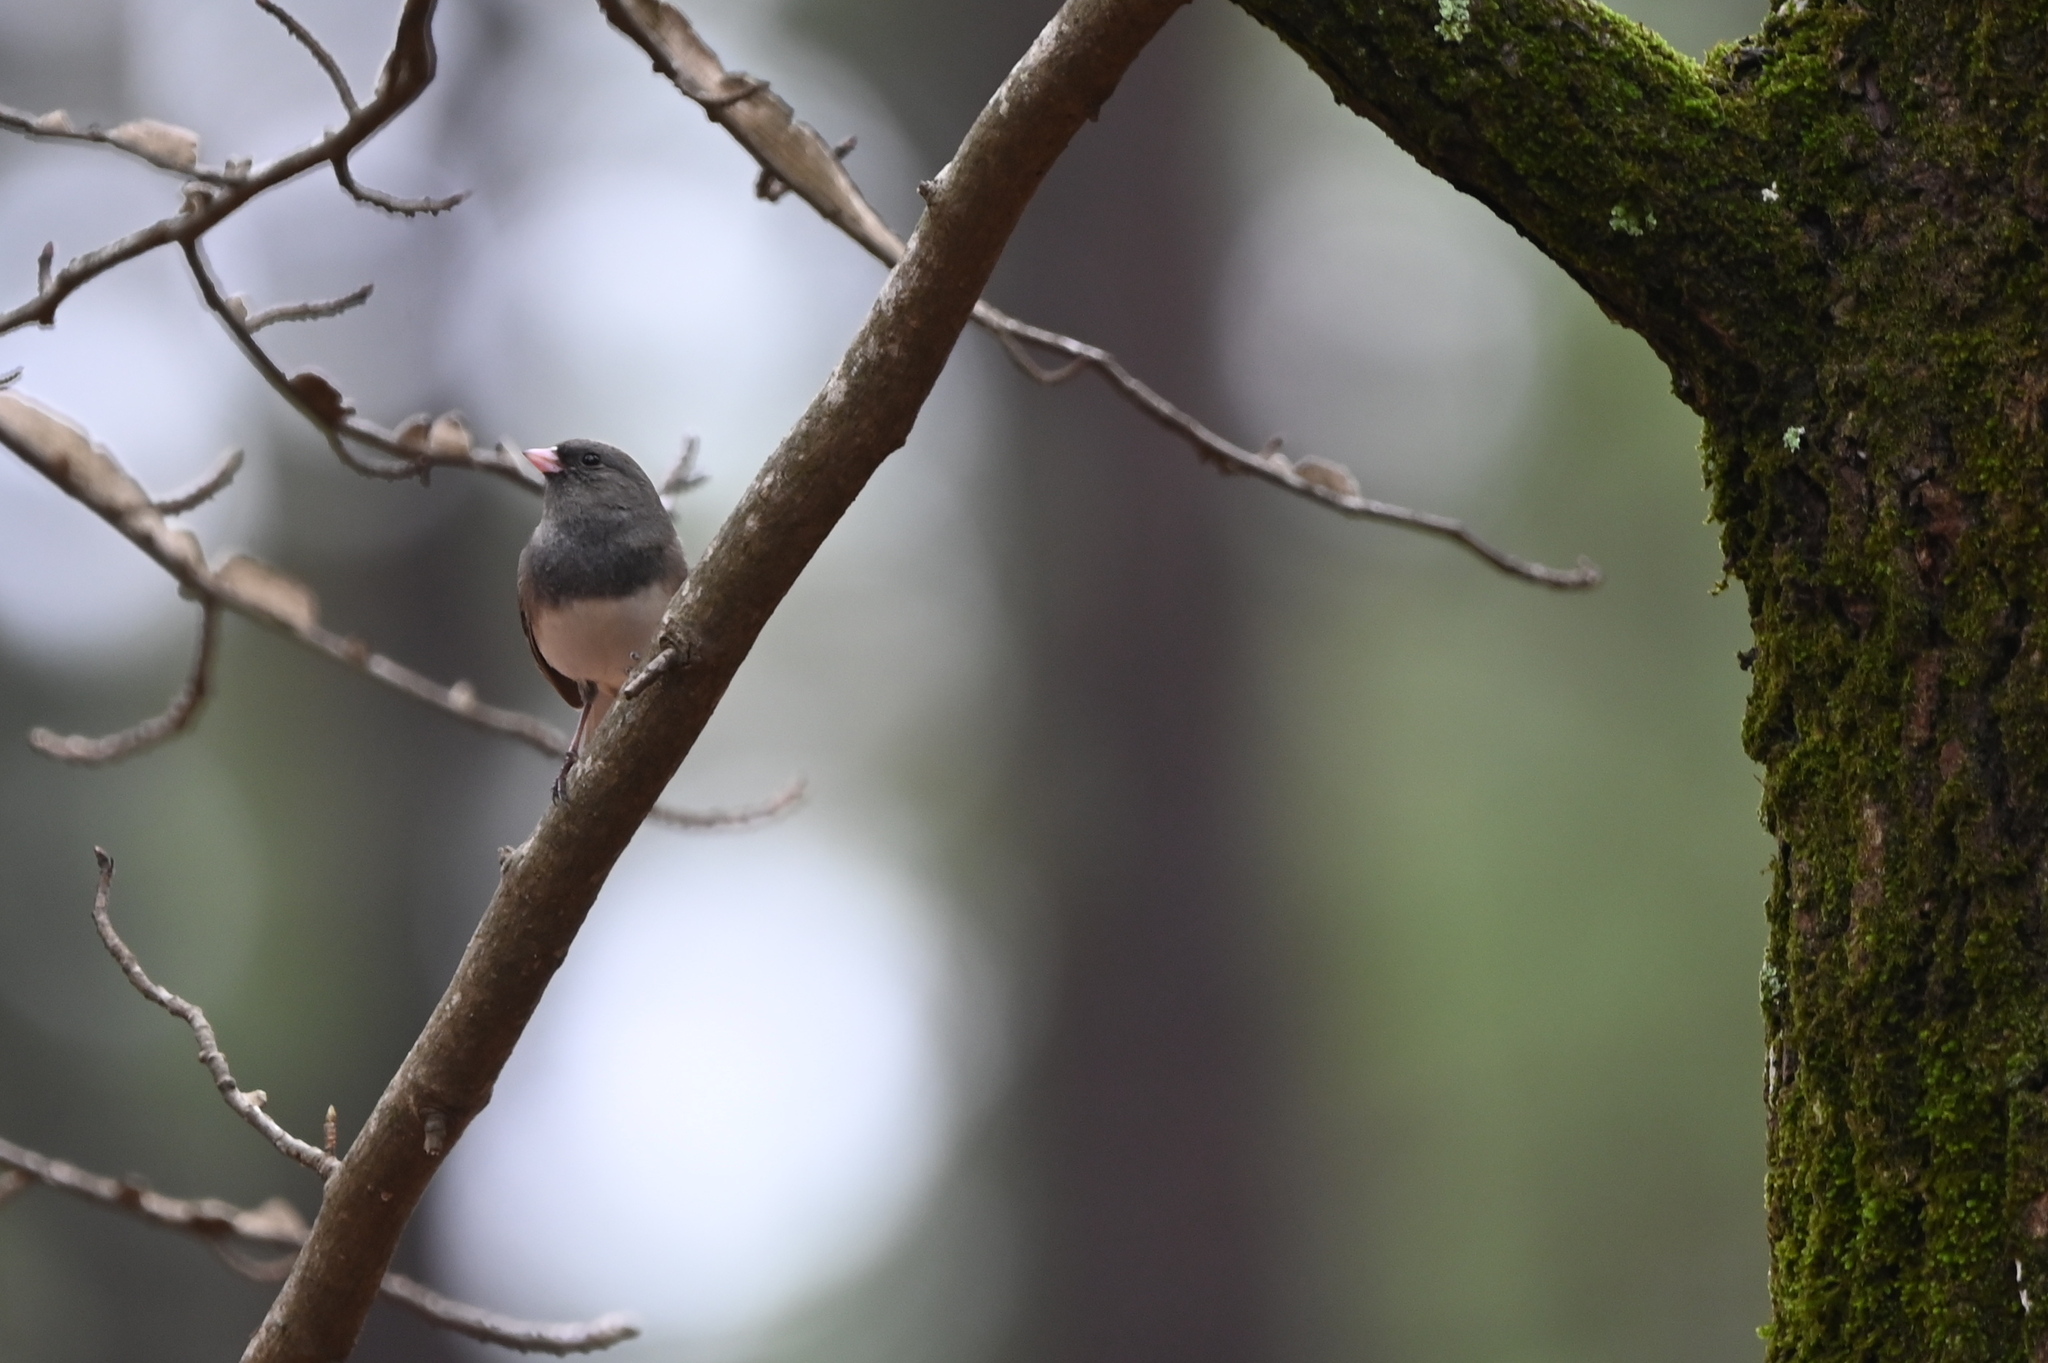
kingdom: Animalia
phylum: Chordata
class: Aves
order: Passeriformes
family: Passerellidae
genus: Junco
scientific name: Junco hyemalis
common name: Dark-eyed junco
